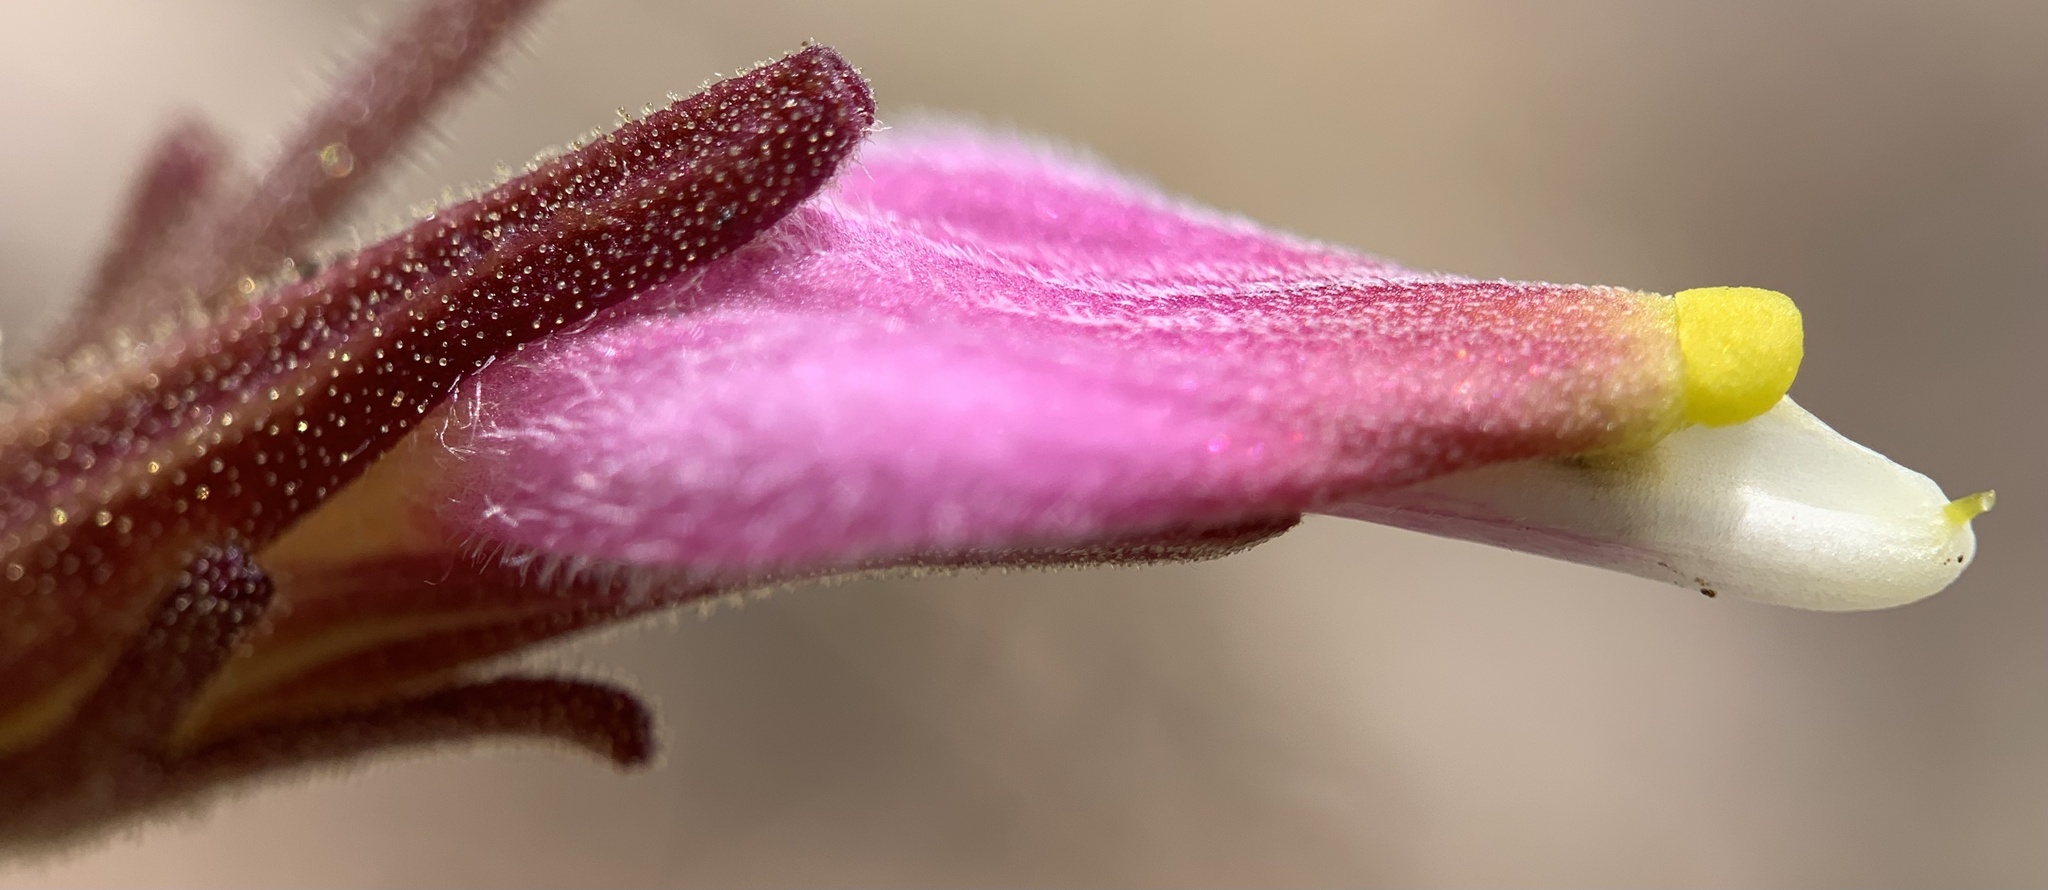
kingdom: Plantae
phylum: Tracheophyta
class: Magnoliopsida
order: Lamiales
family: Orobanchaceae
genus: Cordylanthus
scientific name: Cordylanthus parviflorus
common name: Purple bird's-beak
